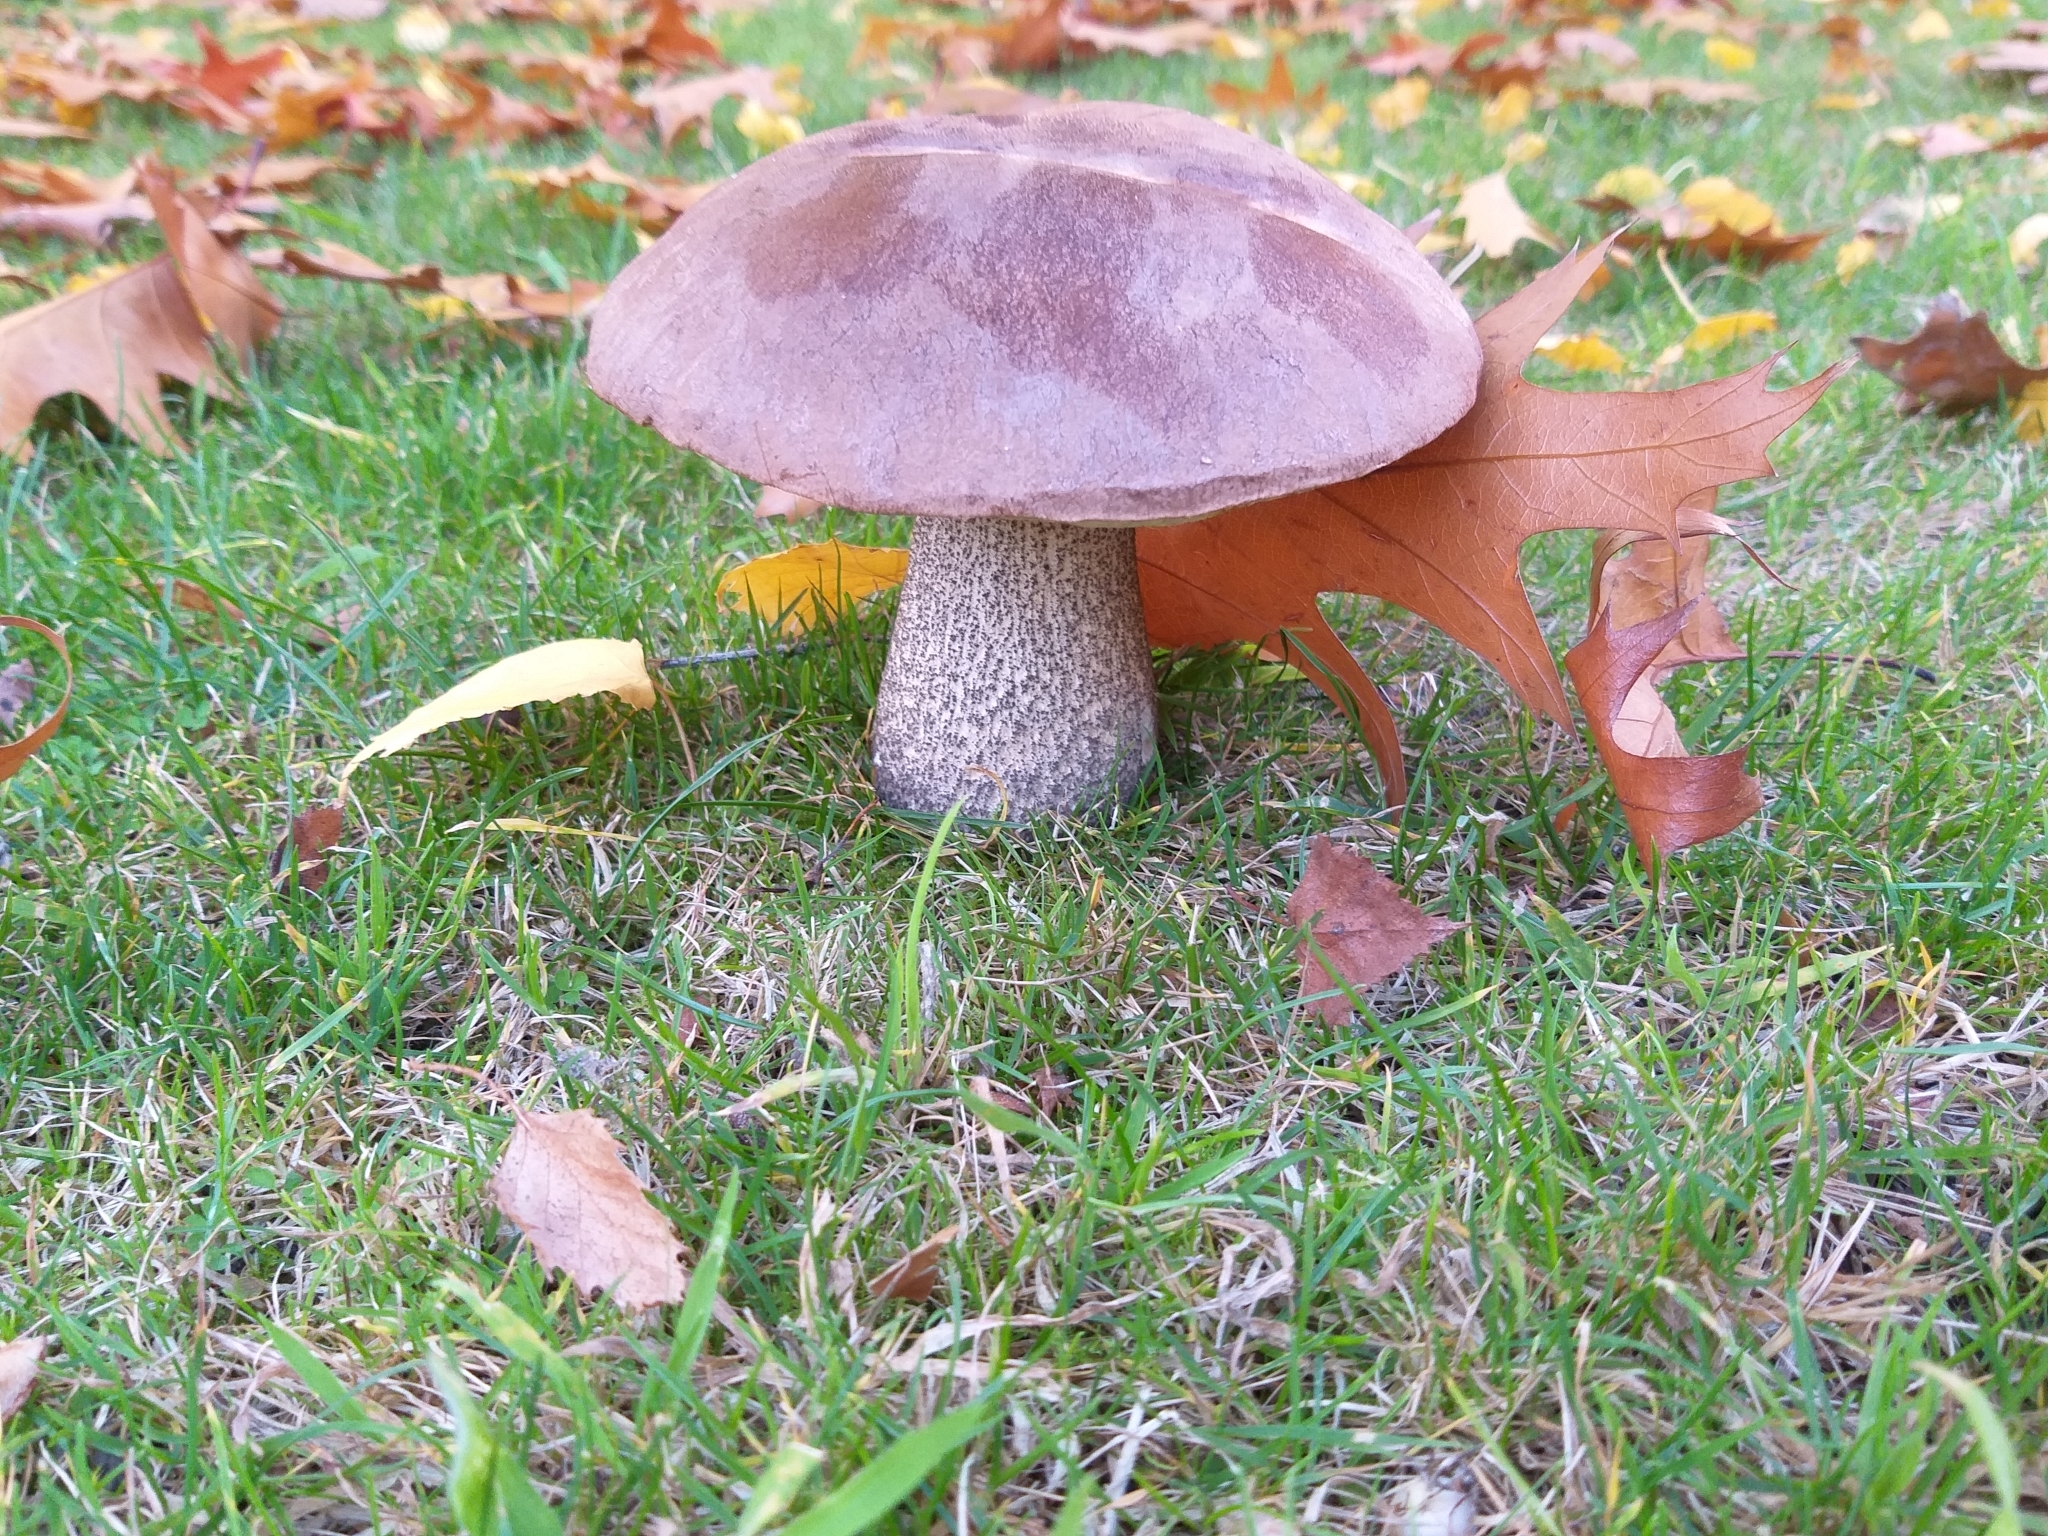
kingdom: Fungi
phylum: Basidiomycota
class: Agaricomycetes
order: Boletales
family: Boletaceae
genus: Leccinum
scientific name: Leccinum scabrum
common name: Blushing bolete
